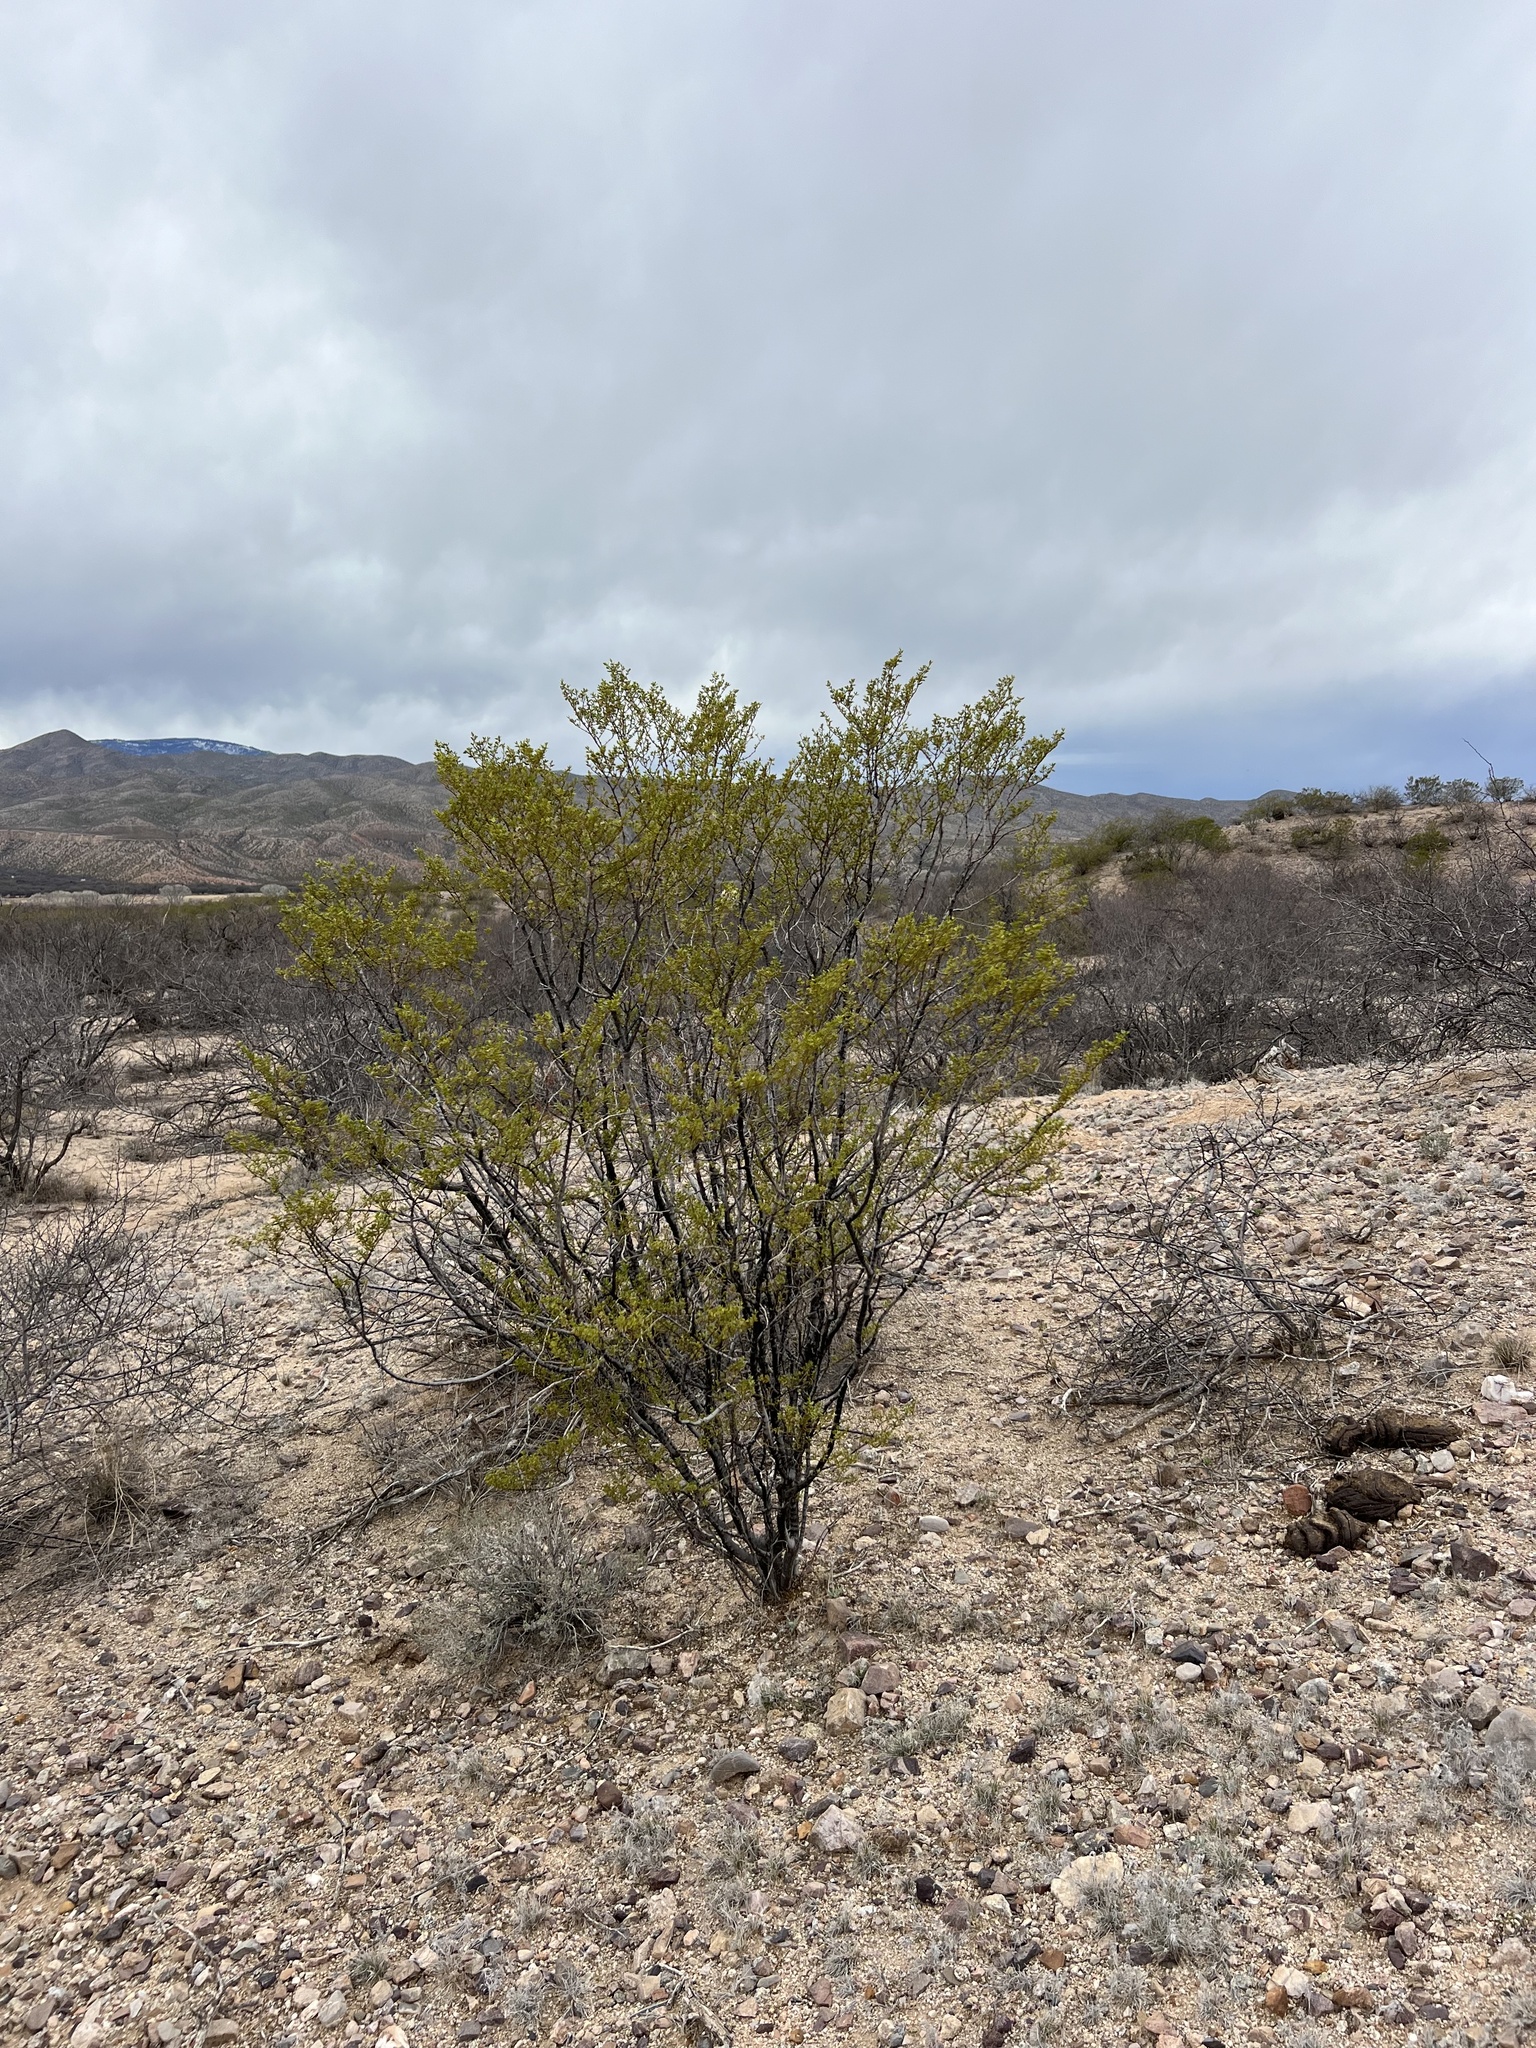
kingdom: Plantae
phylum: Tracheophyta
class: Magnoliopsida
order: Zygophyllales
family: Zygophyllaceae
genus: Larrea
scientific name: Larrea tridentata
